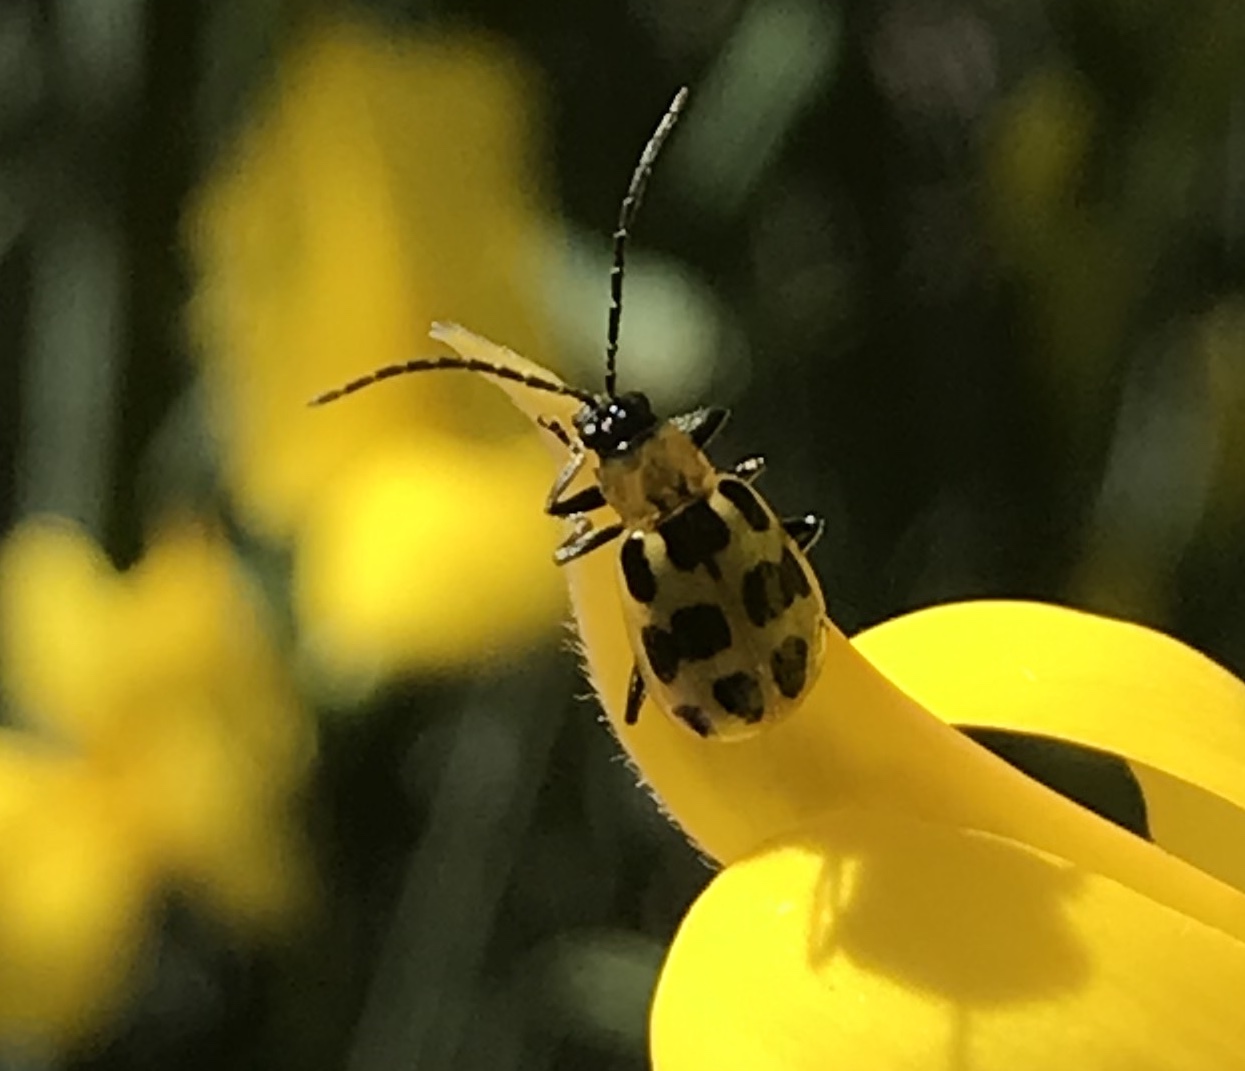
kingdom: Animalia
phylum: Arthropoda
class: Insecta
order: Coleoptera
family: Chrysomelidae
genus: Diabrotica
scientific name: Diabrotica undecimpunctata
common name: Spotted cucumber beetle
